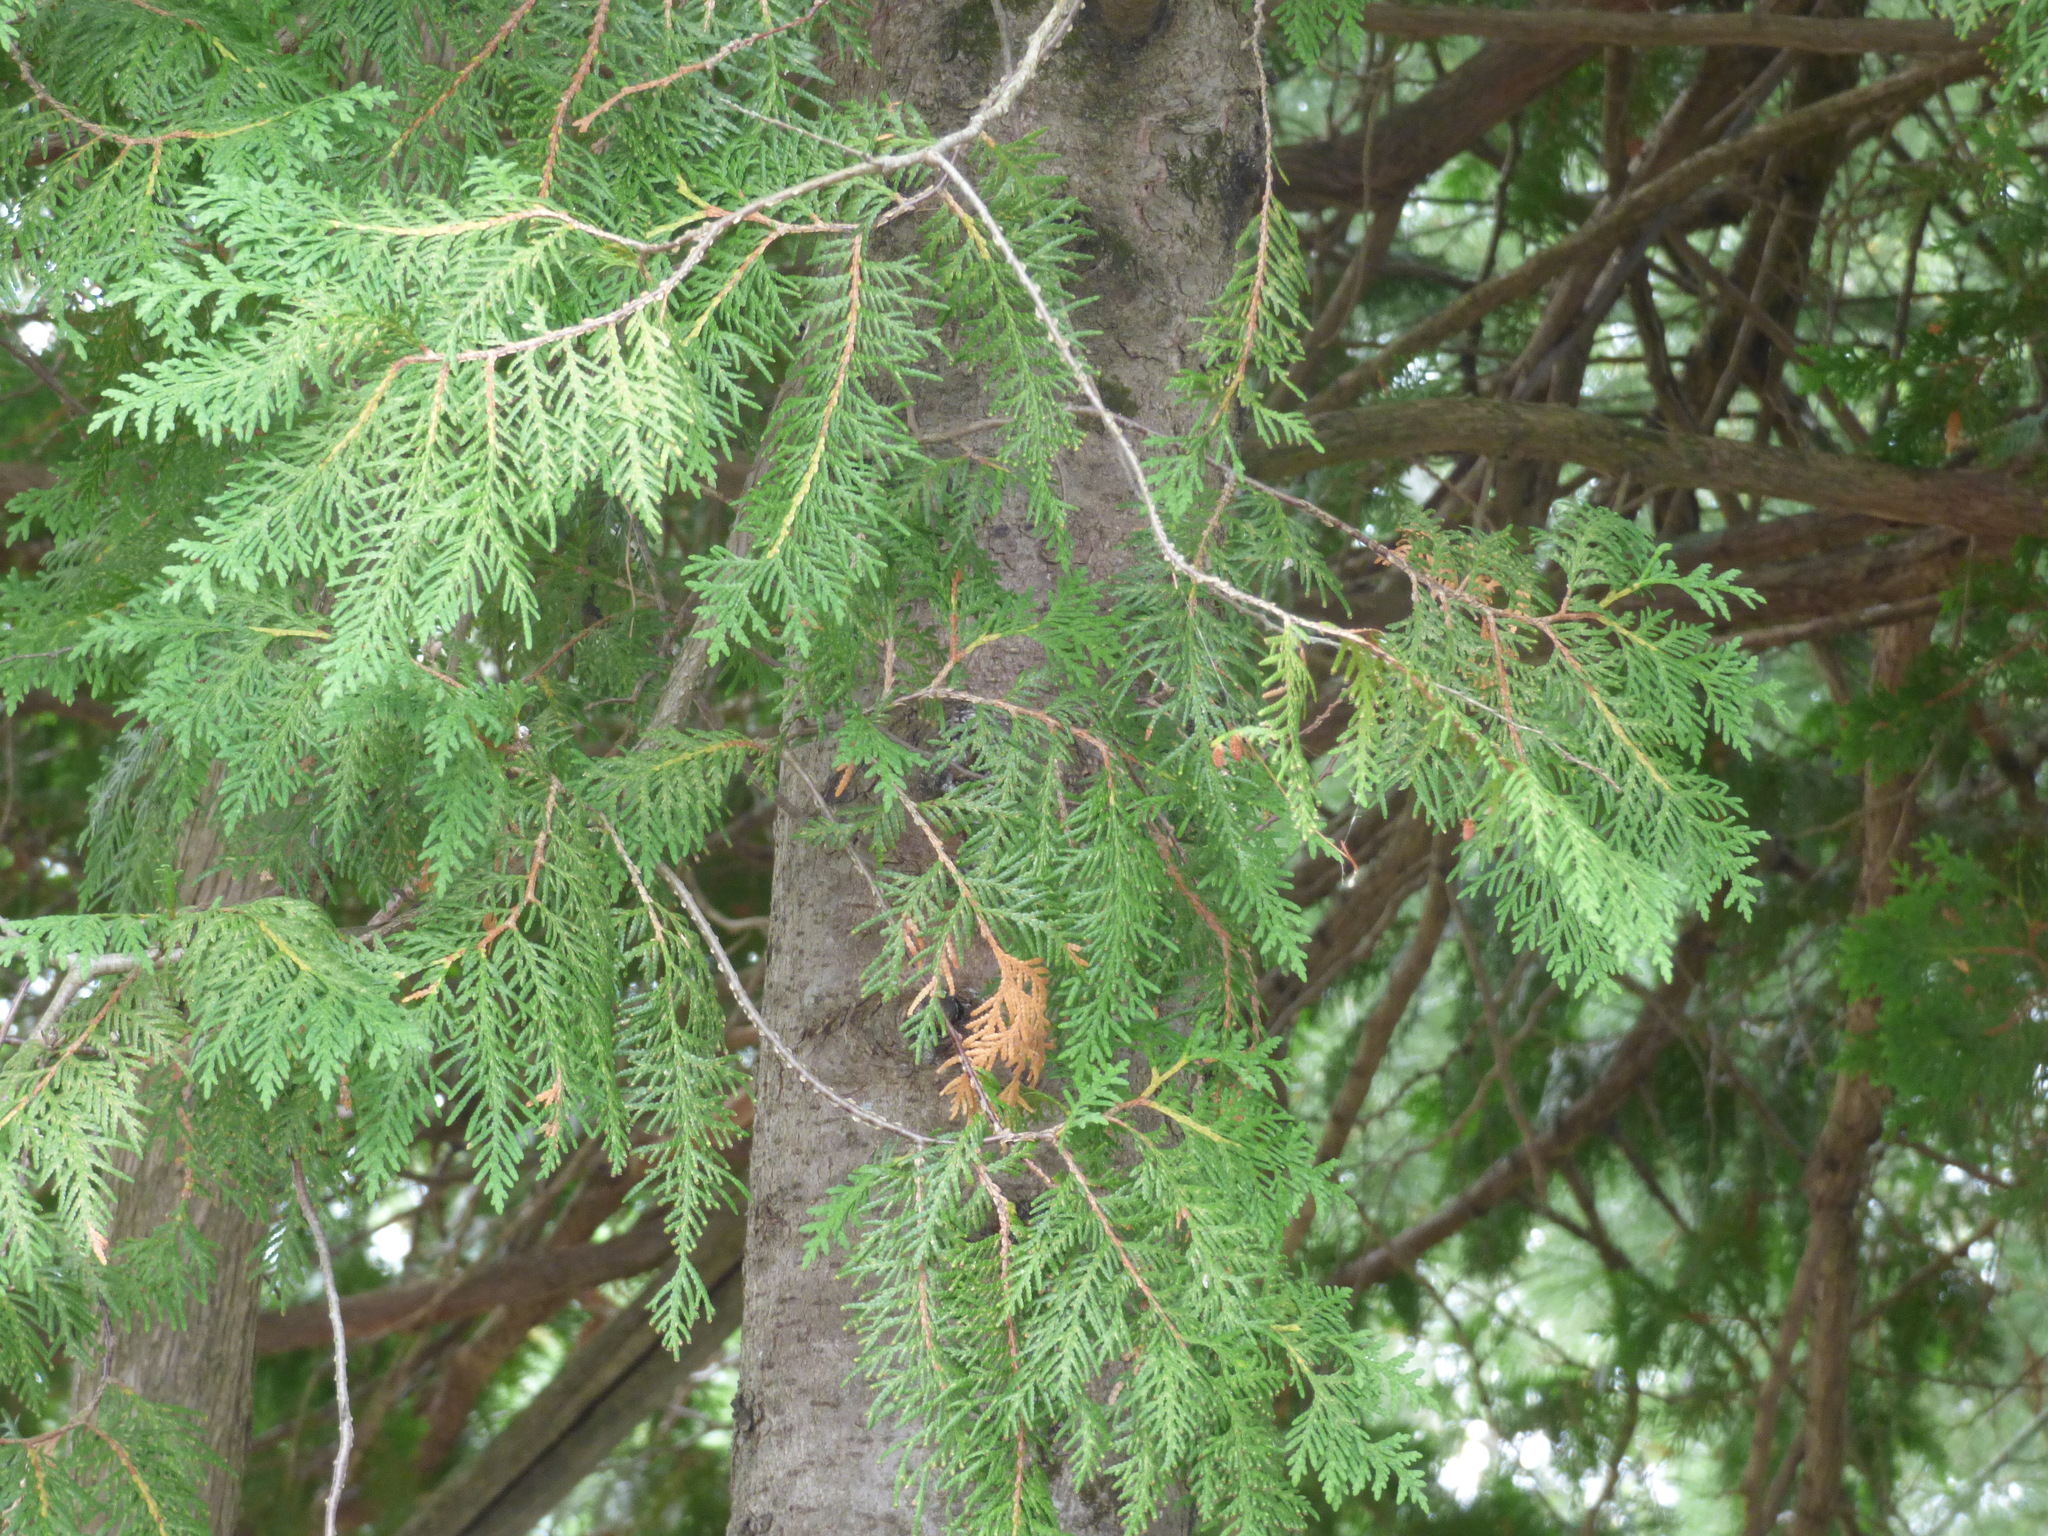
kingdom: Plantae
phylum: Tracheophyta
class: Pinopsida
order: Pinales
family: Cupressaceae
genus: Thuja
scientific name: Thuja occidentalis
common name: Northern white-cedar
